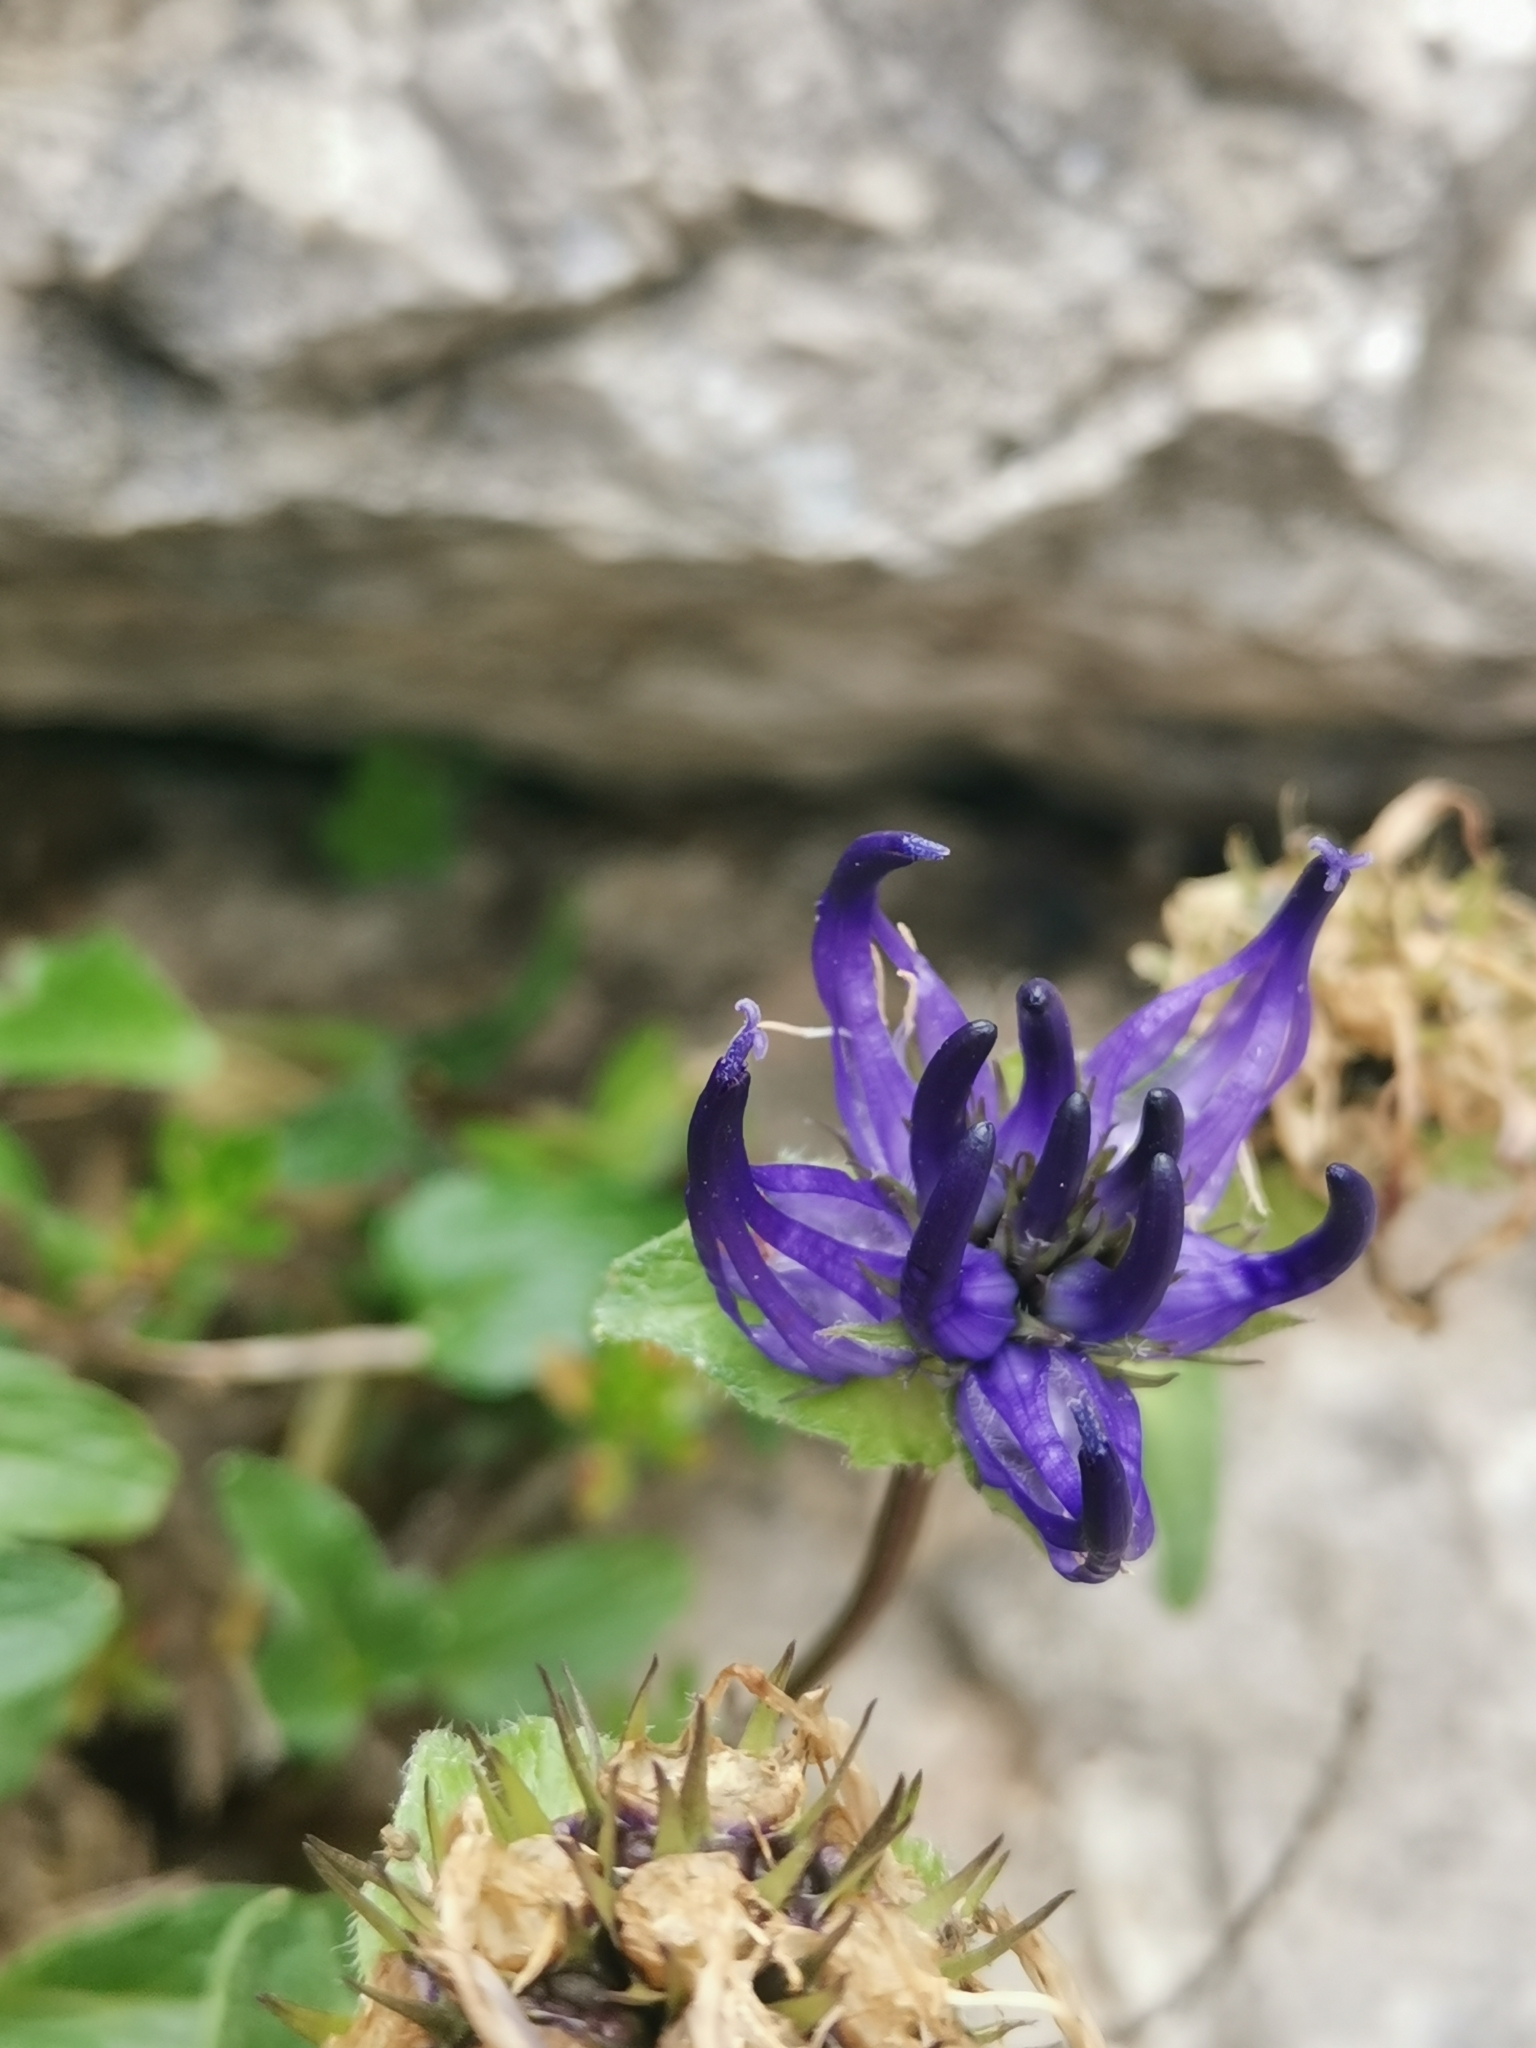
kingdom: Plantae
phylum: Tracheophyta
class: Magnoliopsida
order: Asterales
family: Campanulaceae
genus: Phyteuma
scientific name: Phyteuma sieberi
